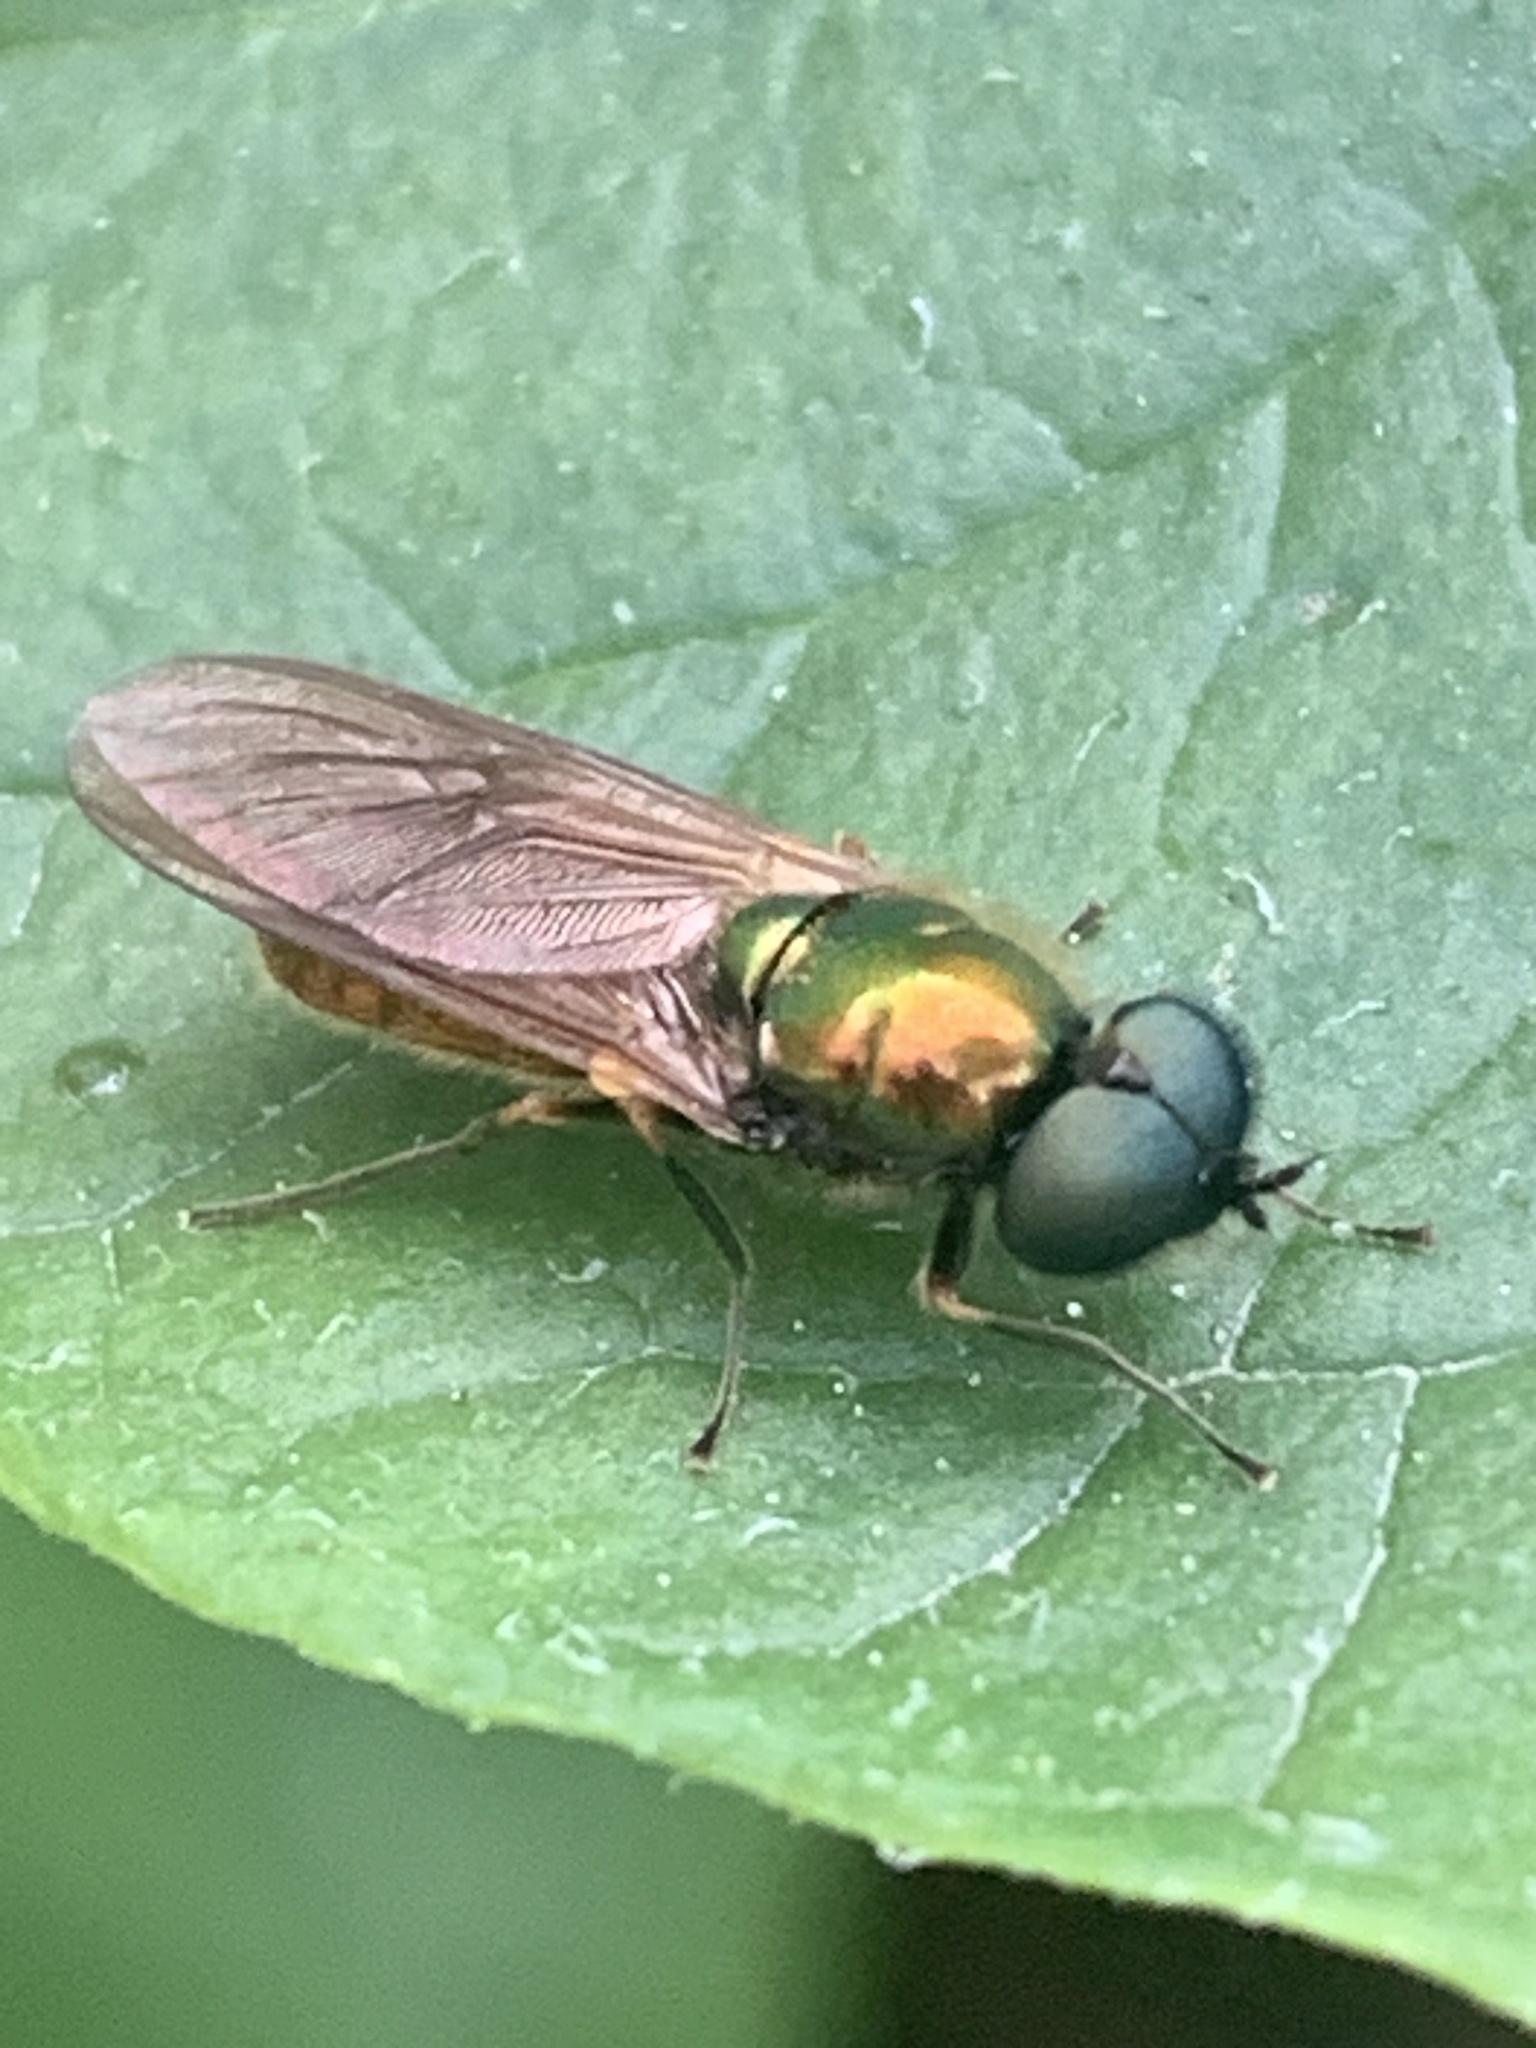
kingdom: Animalia
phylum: Arthropoda
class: Insecta
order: Diptera
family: Stratiomyidae
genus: Chloromyia
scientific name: Chloromyia formosa
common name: Soldier fly
